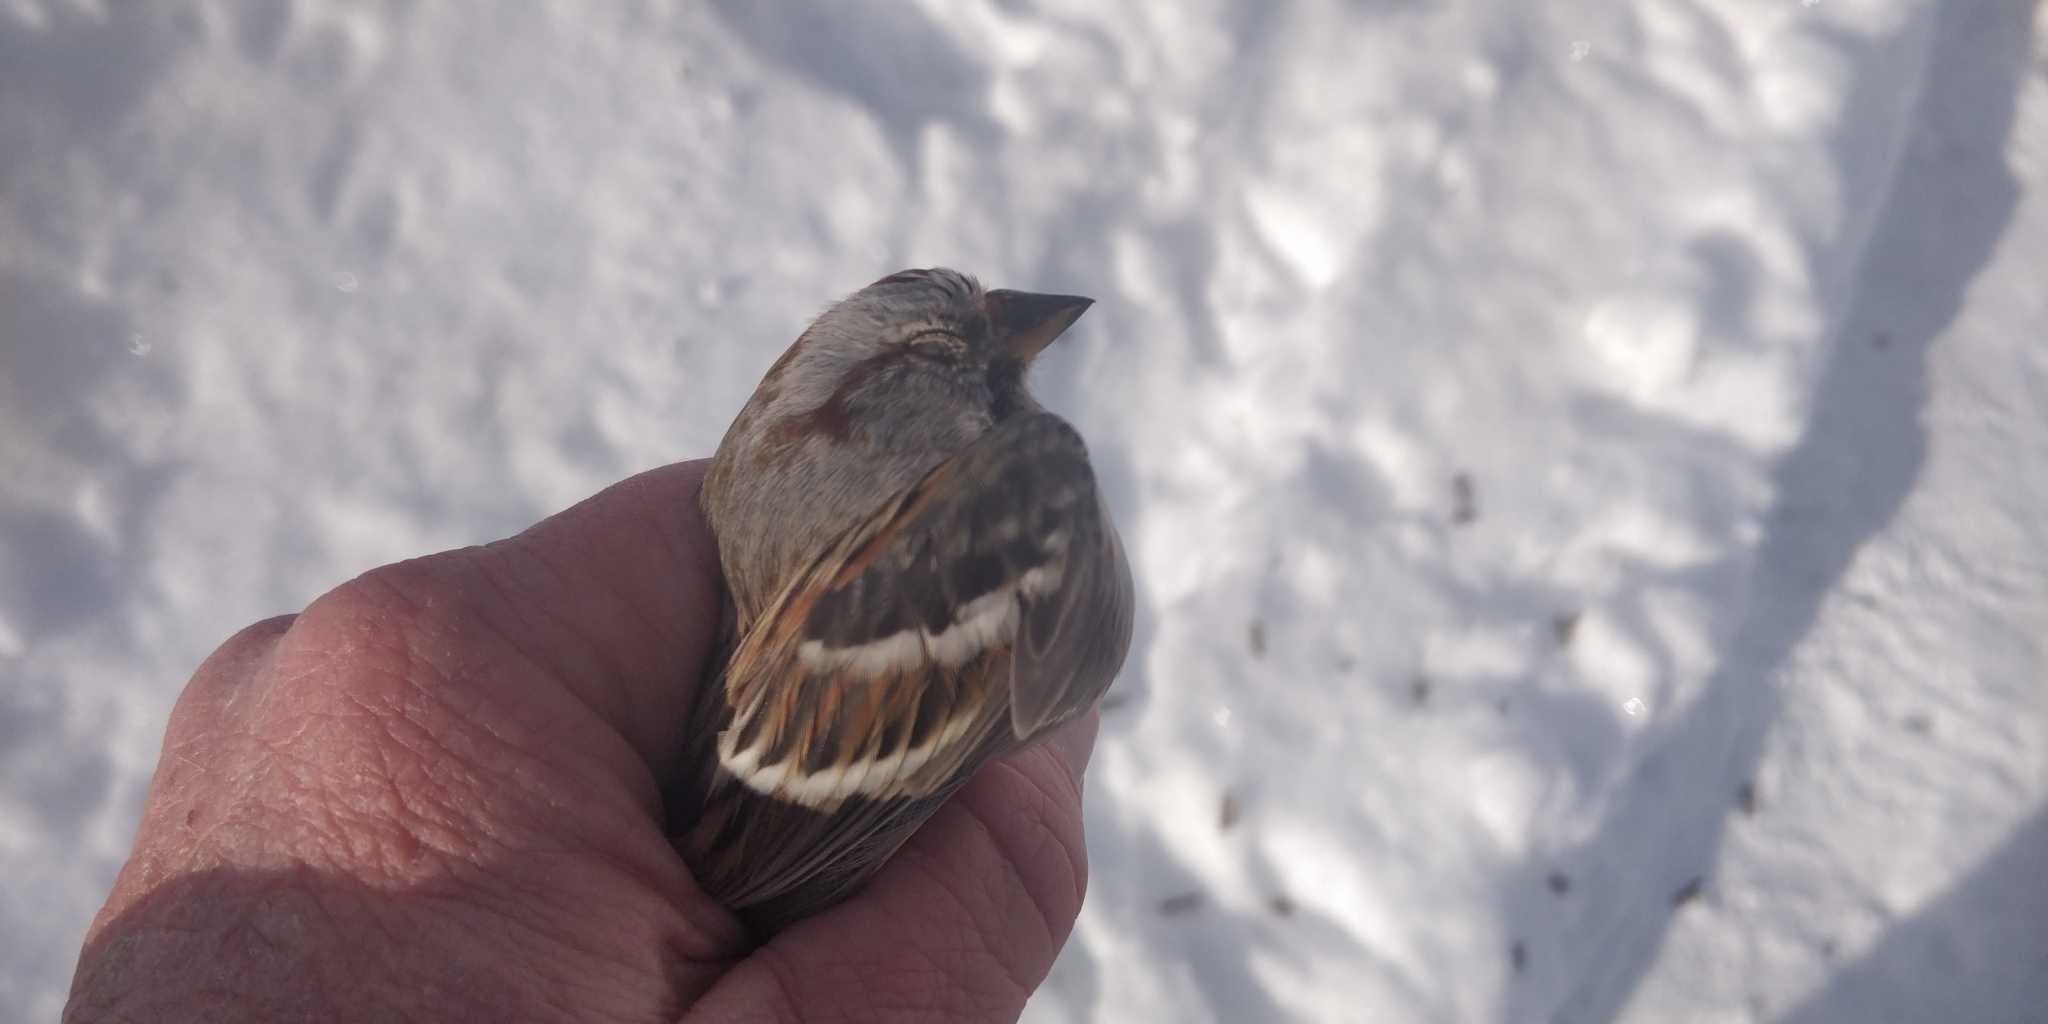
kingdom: Animalia
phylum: Chordata
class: Aves
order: Passeriformes
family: Passerellidae
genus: Spizelloides
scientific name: Spizelloides arborea
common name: American tree sparrow
